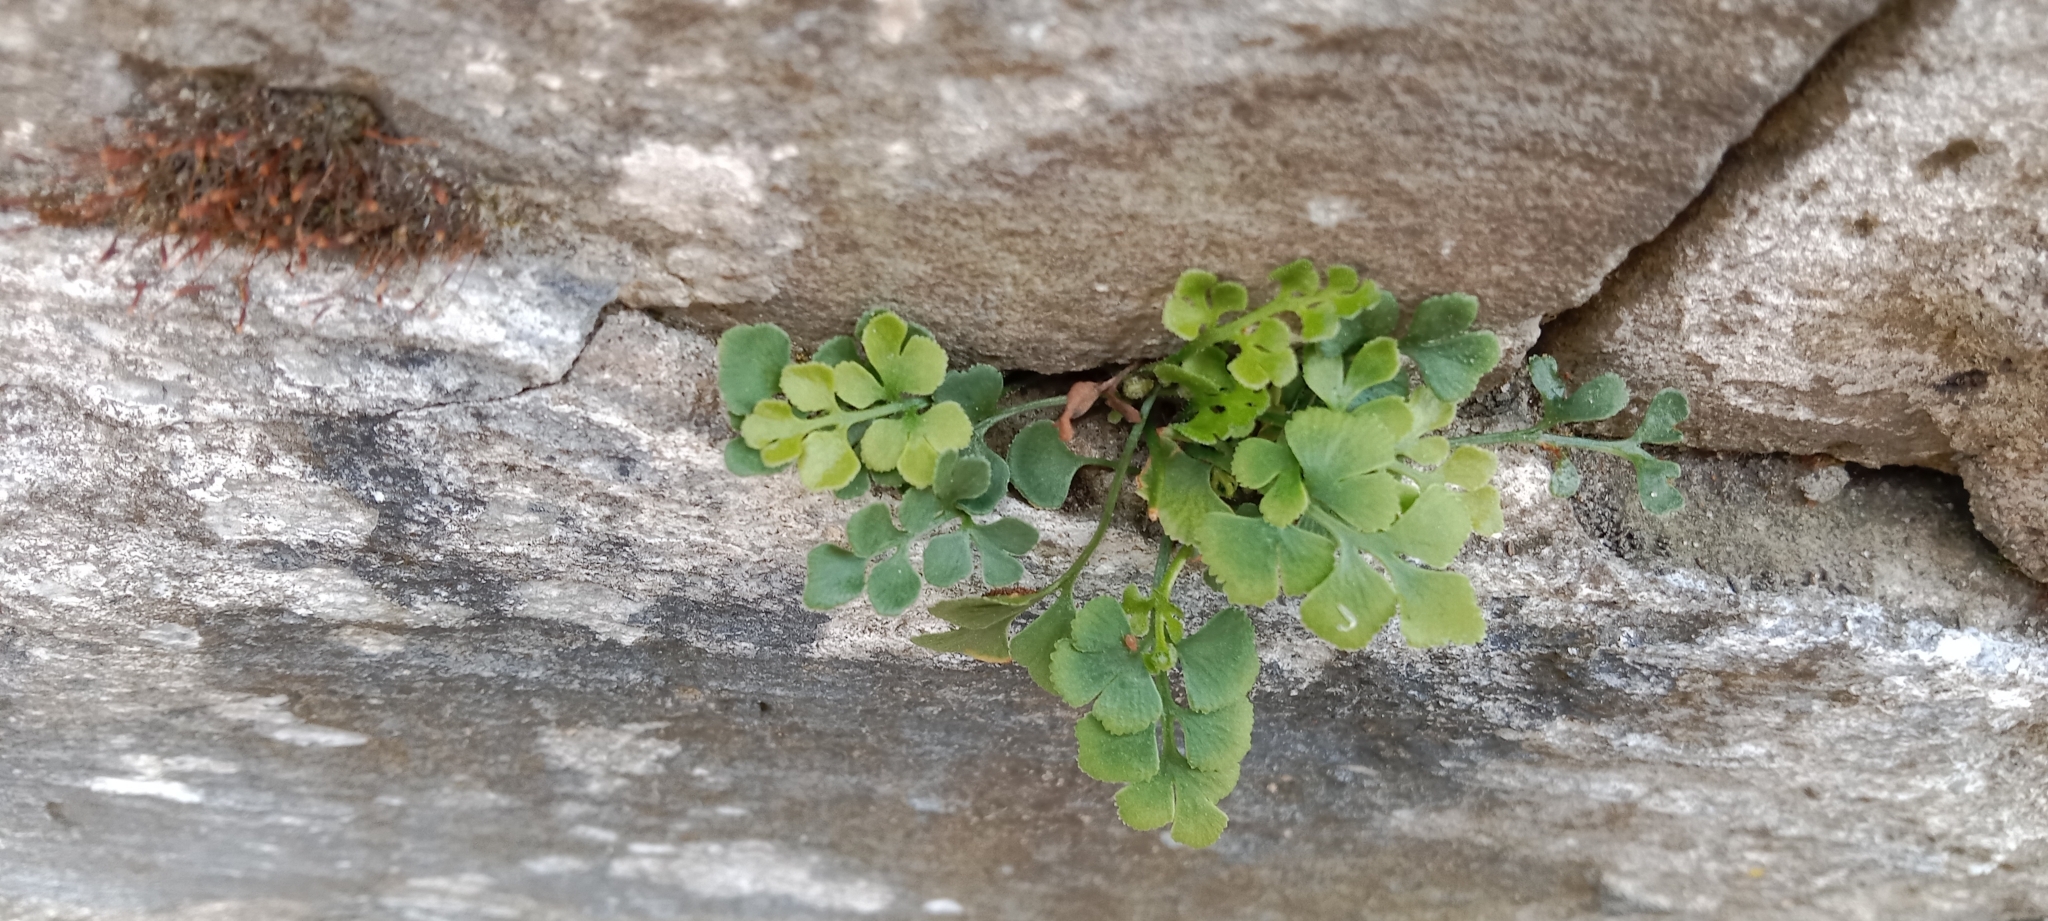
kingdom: Plantae
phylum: Tracheophyta
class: Polypodiopsida
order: Polypodiales
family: Aspleniaceae
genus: Asplenium
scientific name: Asplenium ruta-muraria
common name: Wall-rue
